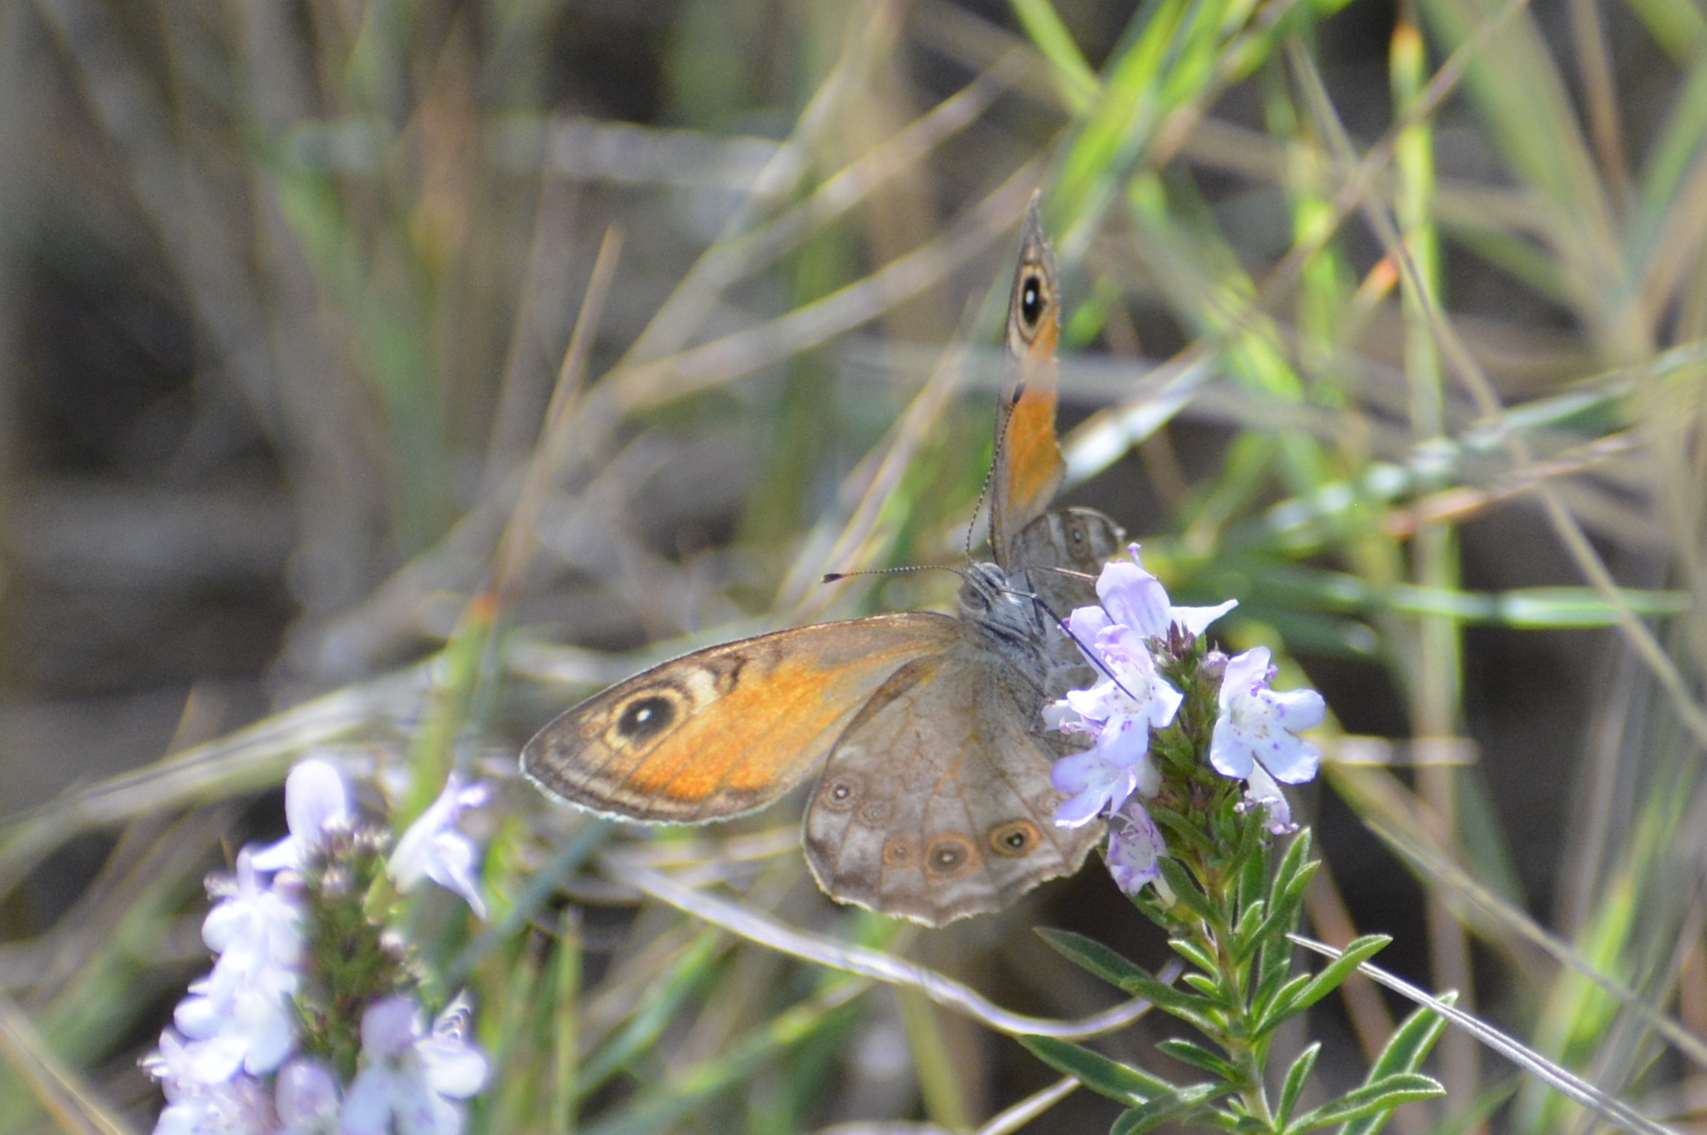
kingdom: Animalia
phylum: Arthropoda
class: Insecta
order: Lepidoptera
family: Nymphalidae
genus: Pararge
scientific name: Pararge Lasiommata maera
